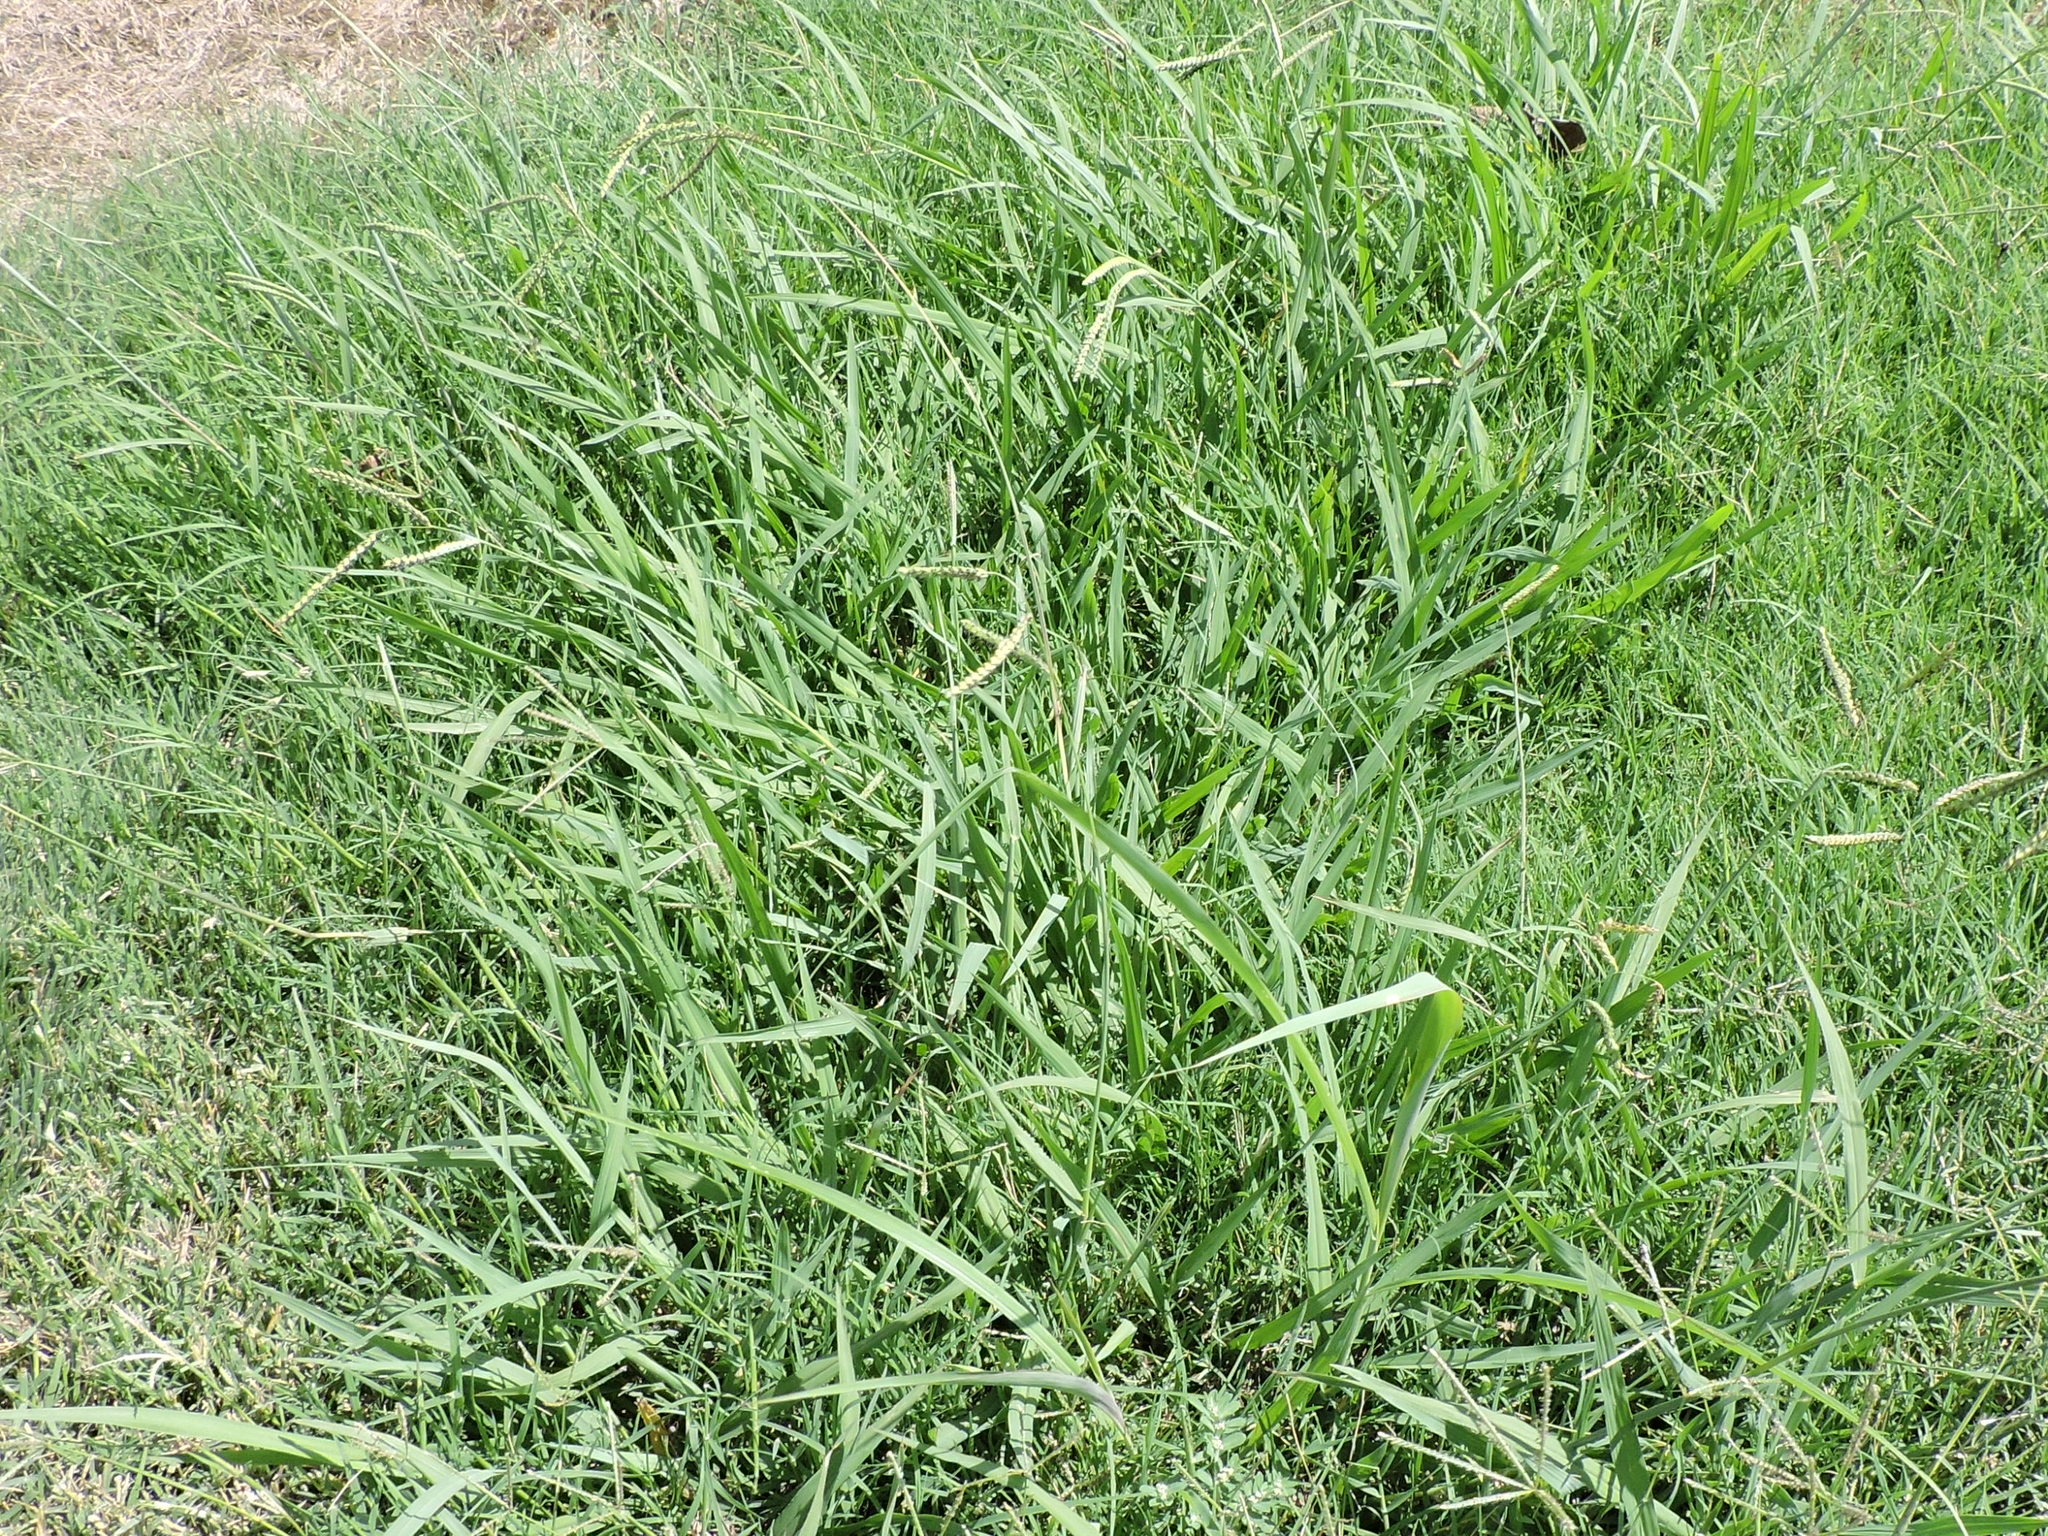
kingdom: Plantae
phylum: Tracheophyta
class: Liliopsida
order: Poales
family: Poaceae
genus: Paspalum
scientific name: Paspalum dilatatum
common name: Dallisgrass
